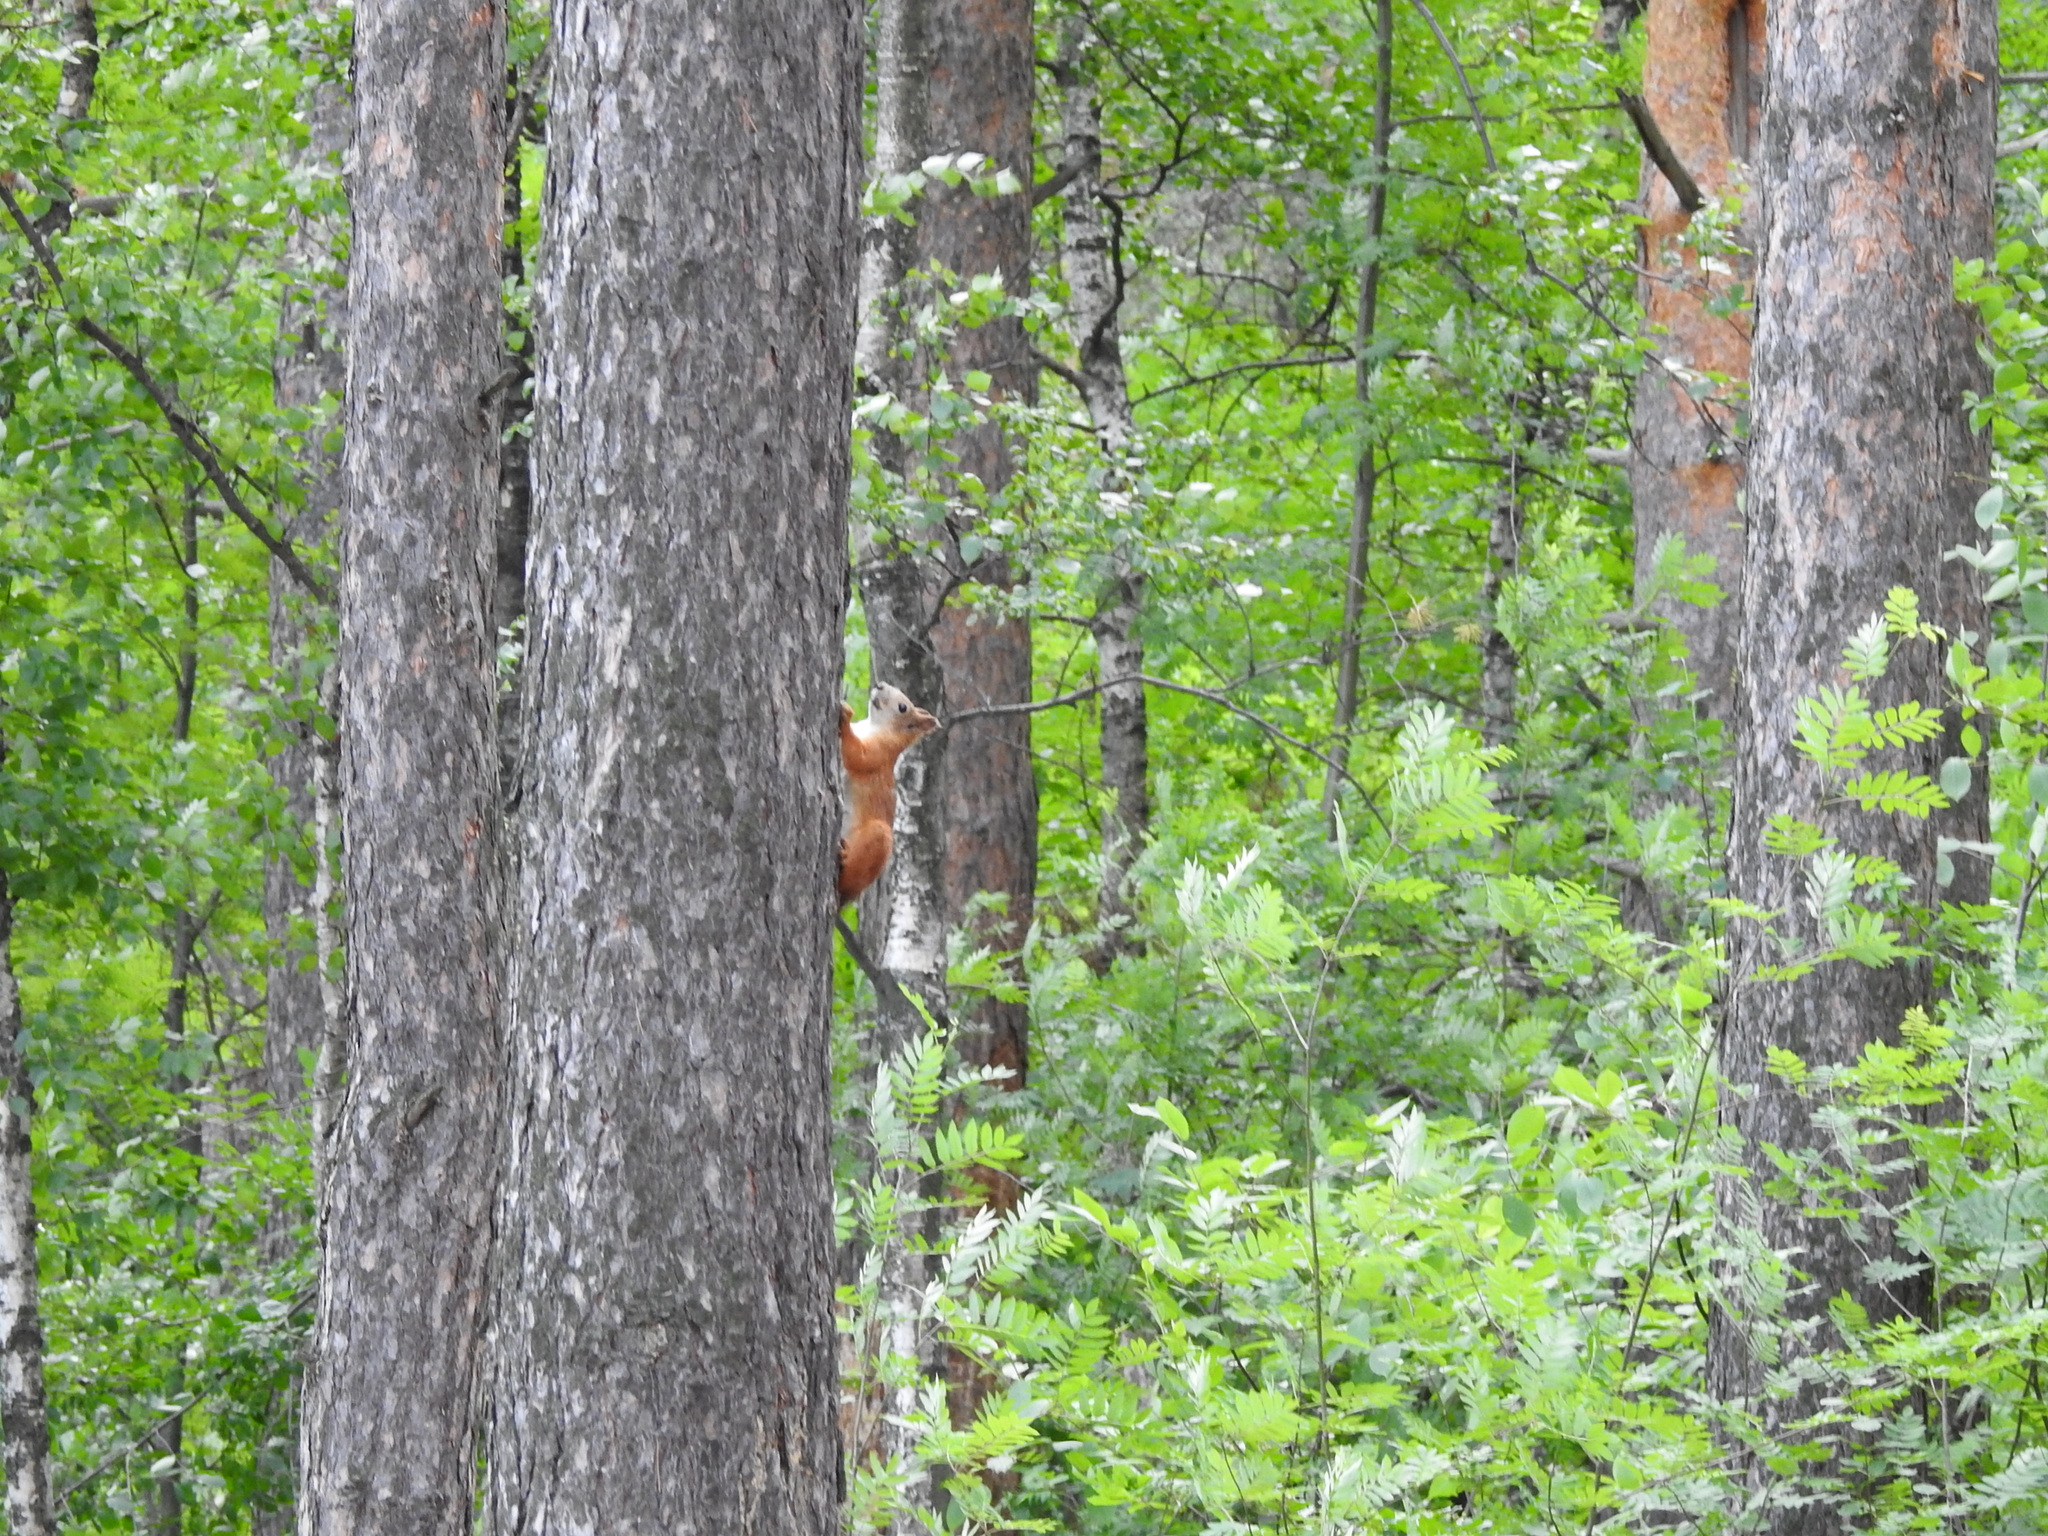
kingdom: Animalia
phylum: Chordata
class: Mammalia
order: Rodentia
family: Sciuridae
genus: Sciurus
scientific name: Sciurus vulgaris
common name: Eurasian red squirrel
